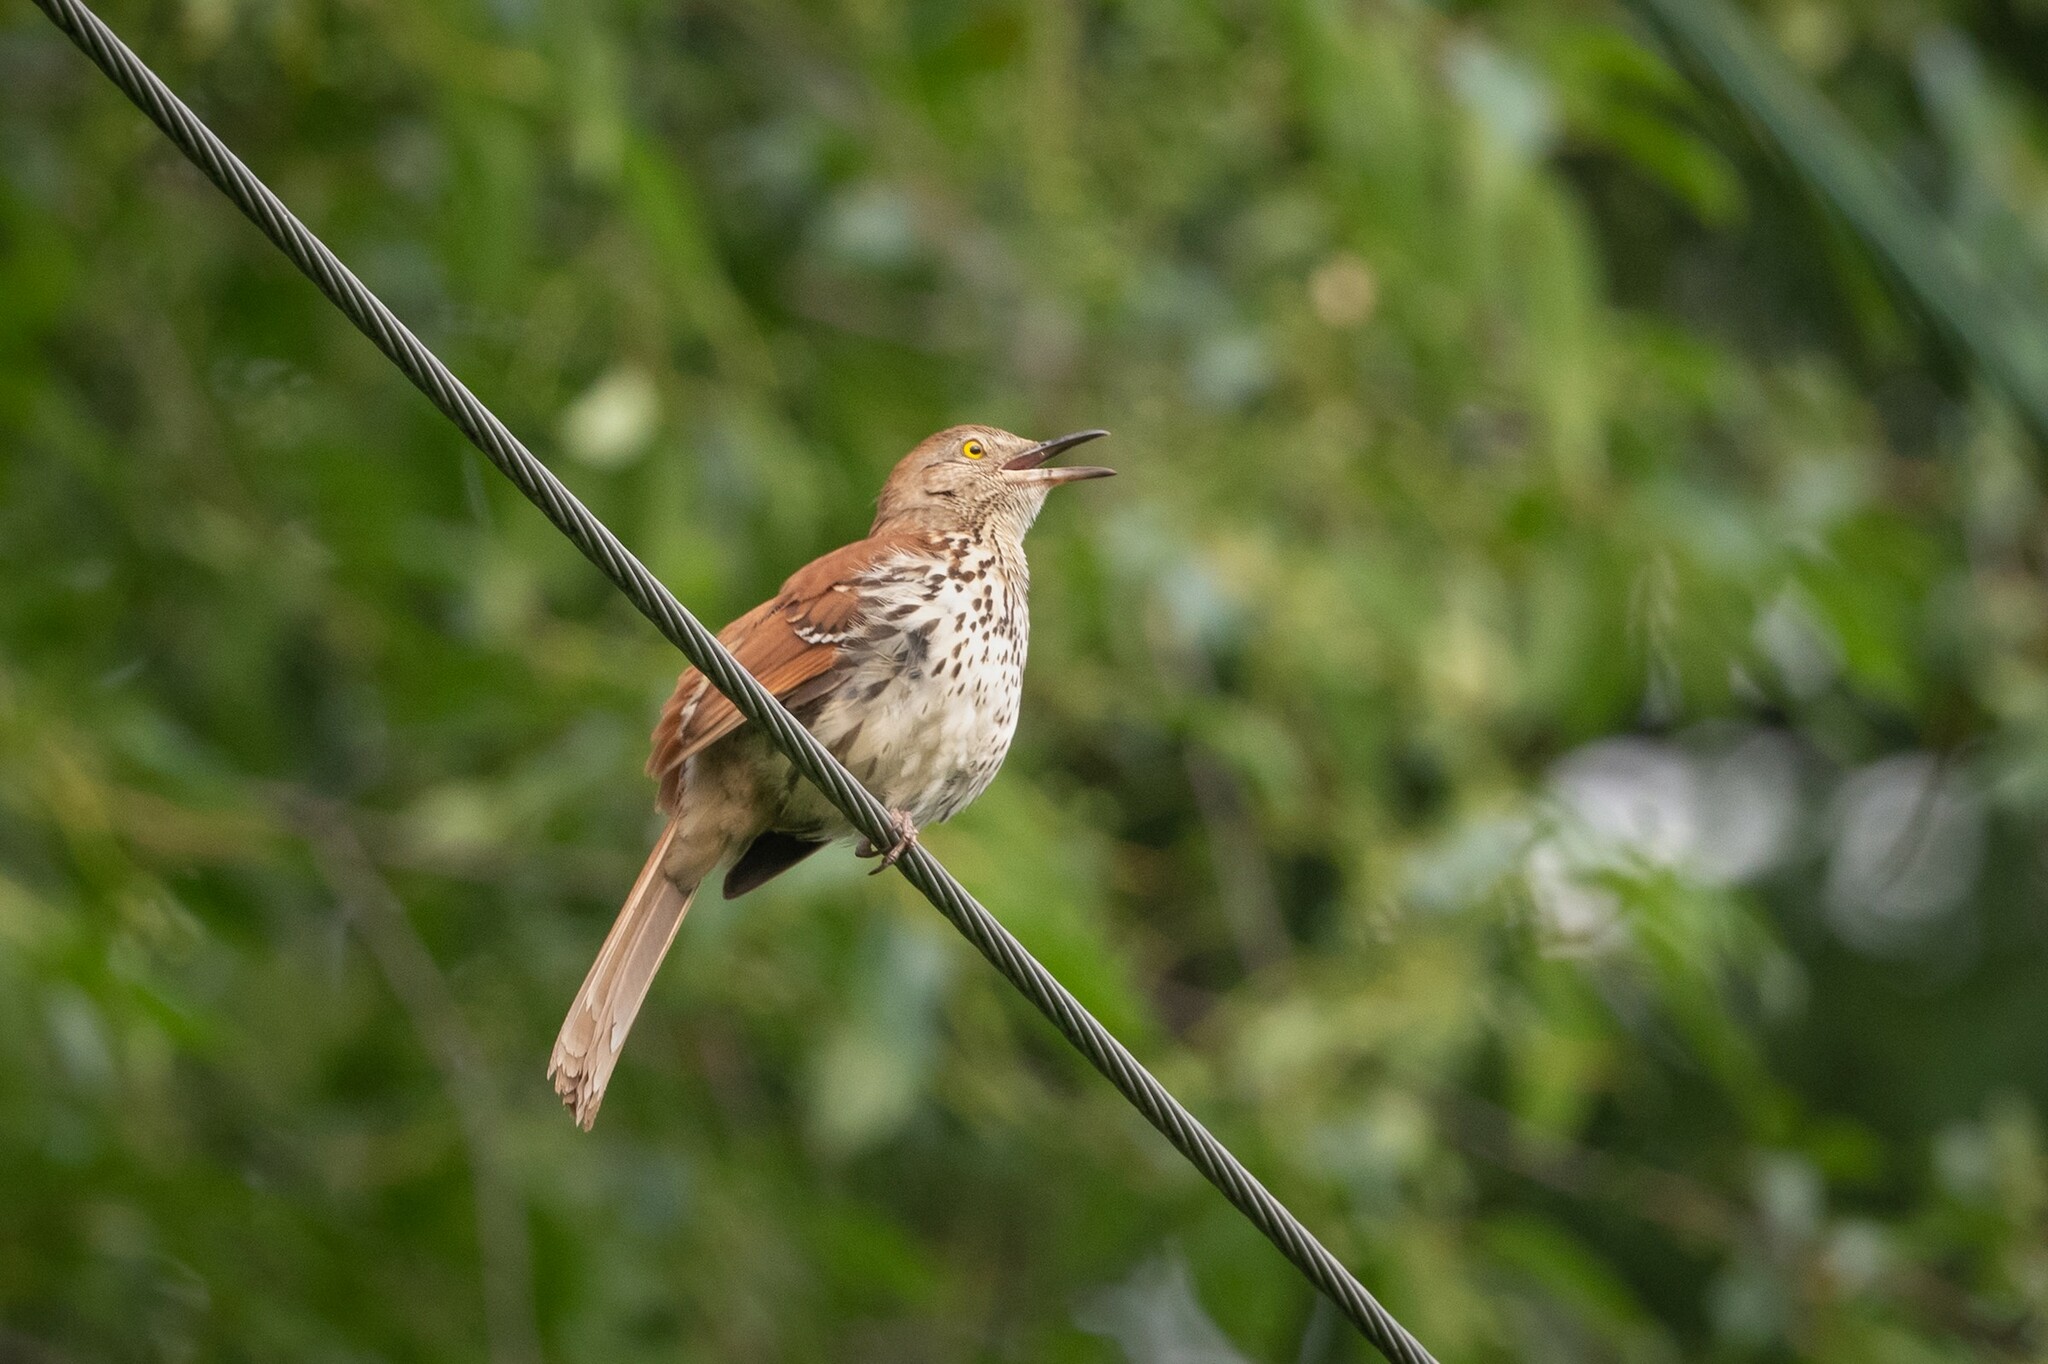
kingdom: Animalia
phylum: Chordata
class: Aves
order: Passeriformes
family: Mimidae
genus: Toxostoma
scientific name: Toxostoma rufum
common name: Brown thrasher
